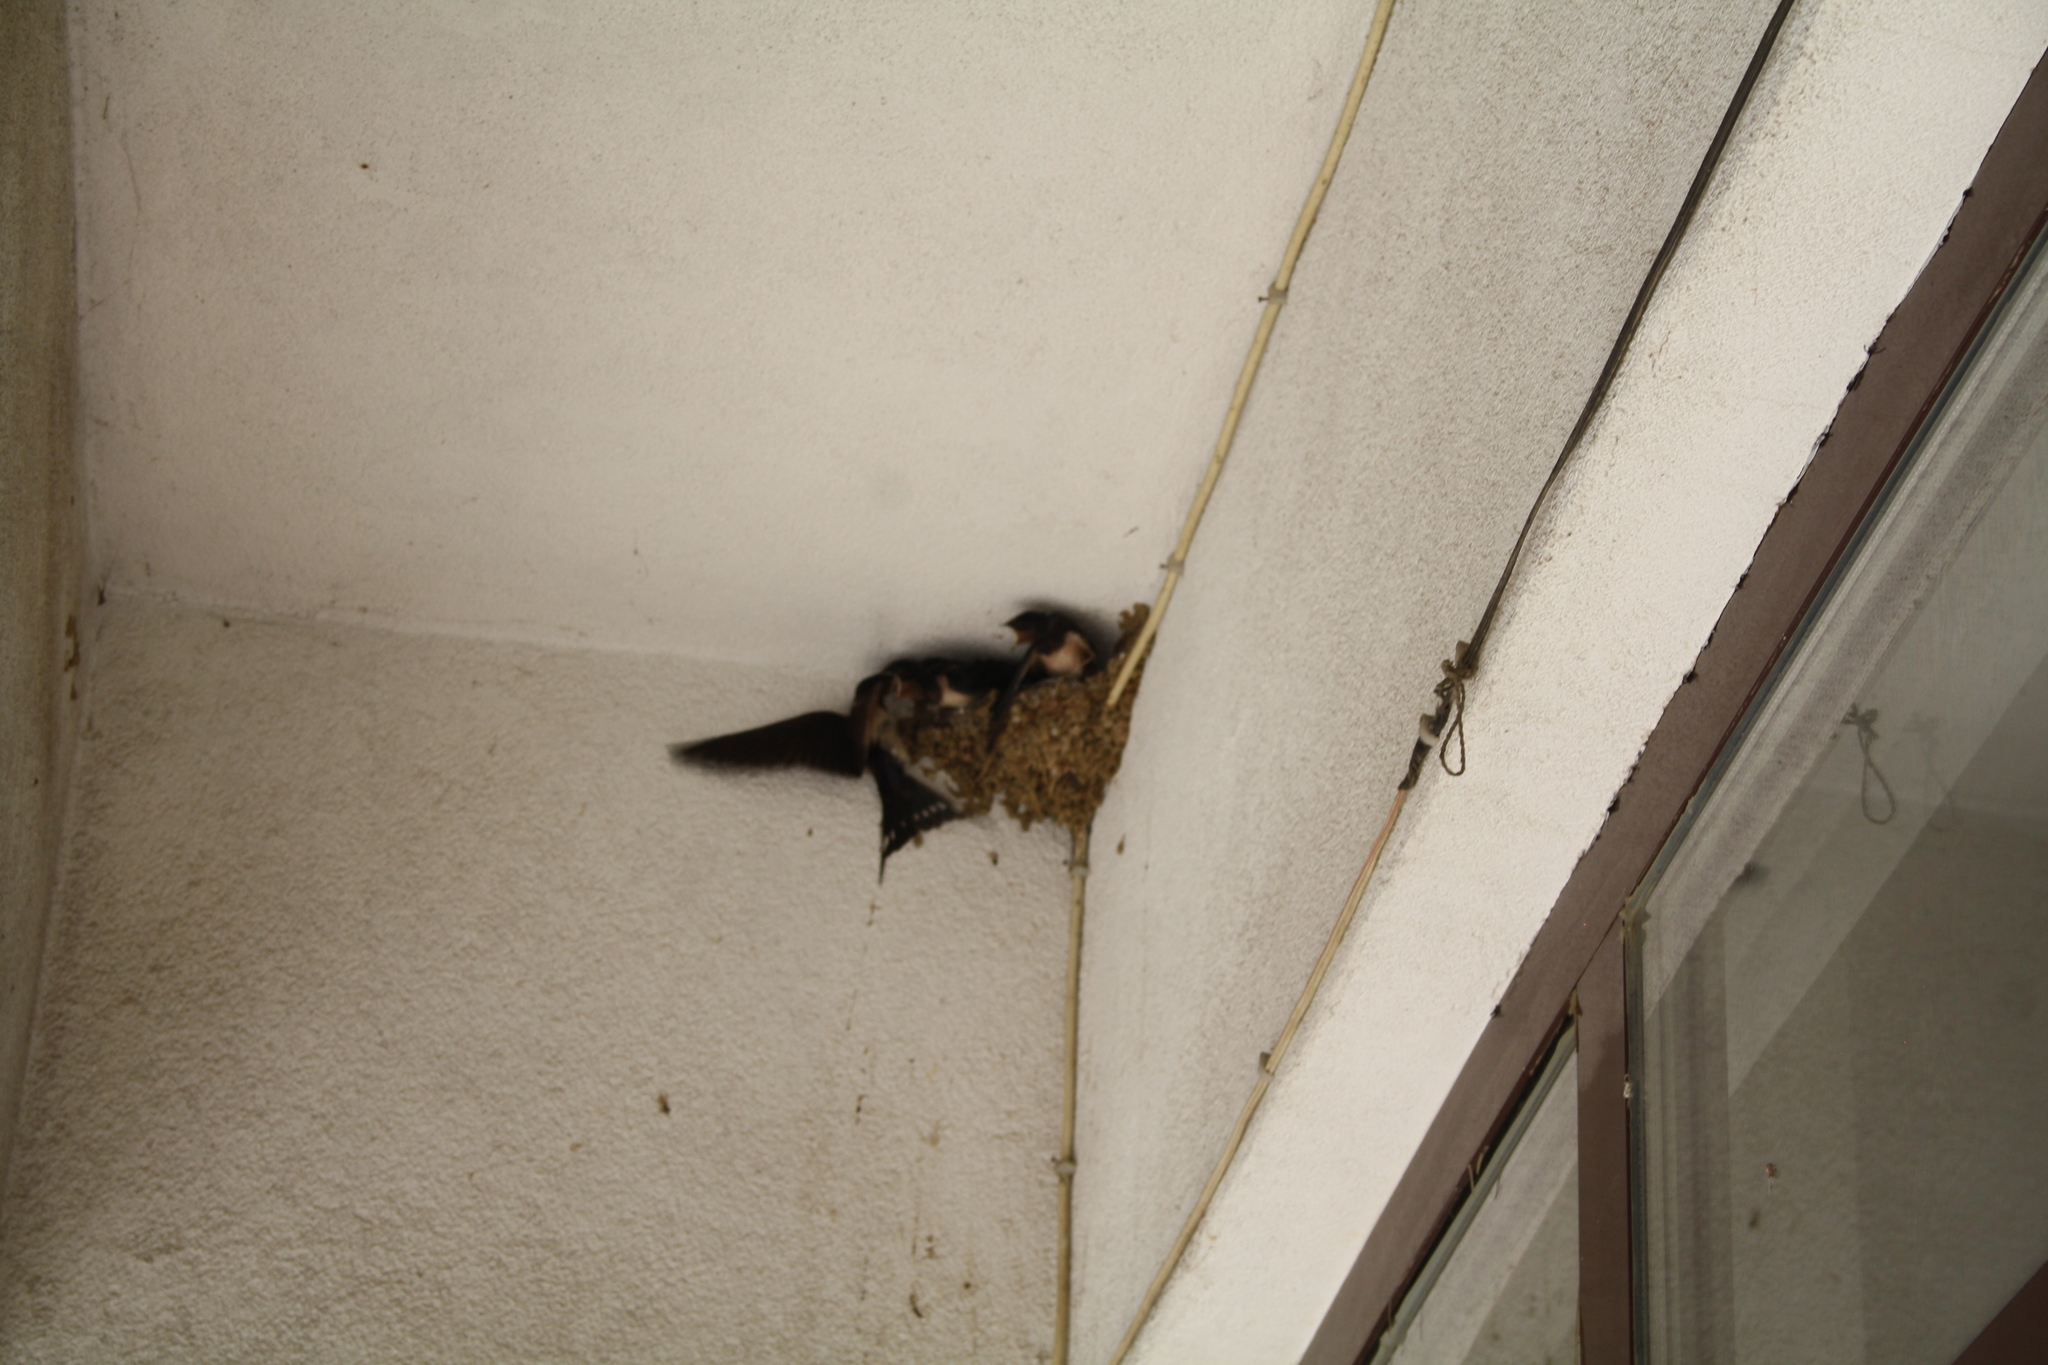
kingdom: Animalia
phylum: Chordata
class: Aves
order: Passeriformes
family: Hirundinidae
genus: Hirundo
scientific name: Hirundo rustica
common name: Barn swallow
